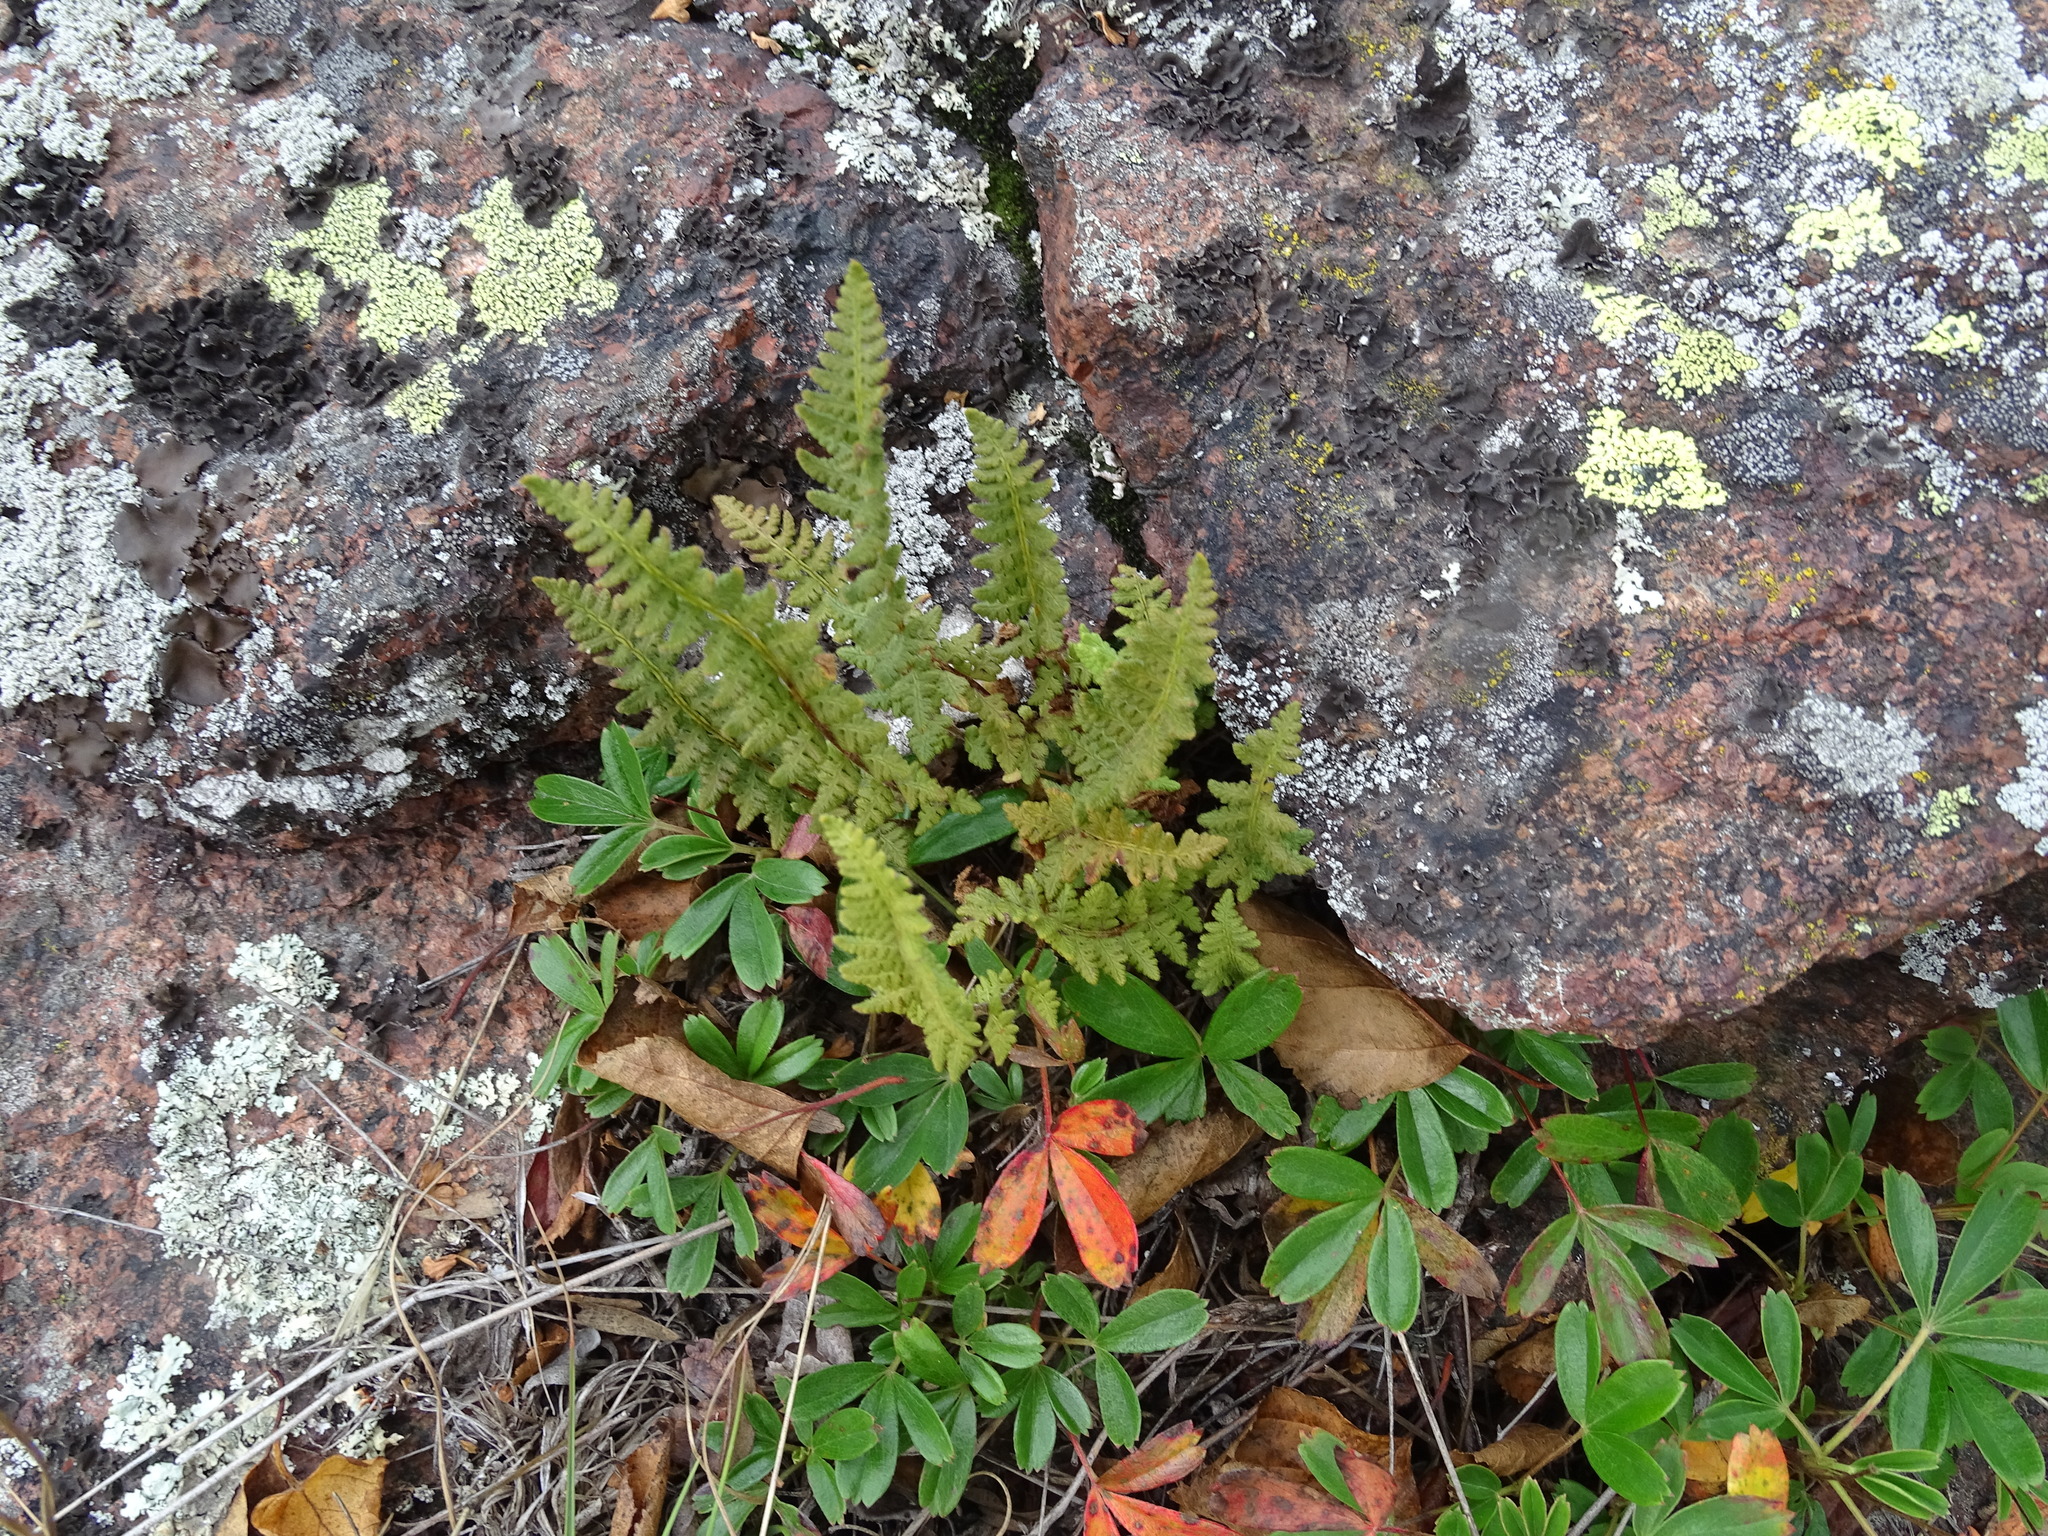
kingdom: Plantae
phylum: Tracheophyta
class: Polypodiopsida
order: Polypodiales
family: Woodsiaceae
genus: Woodsia
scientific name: Woodsia ilvensis
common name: Fragrant woodsia
